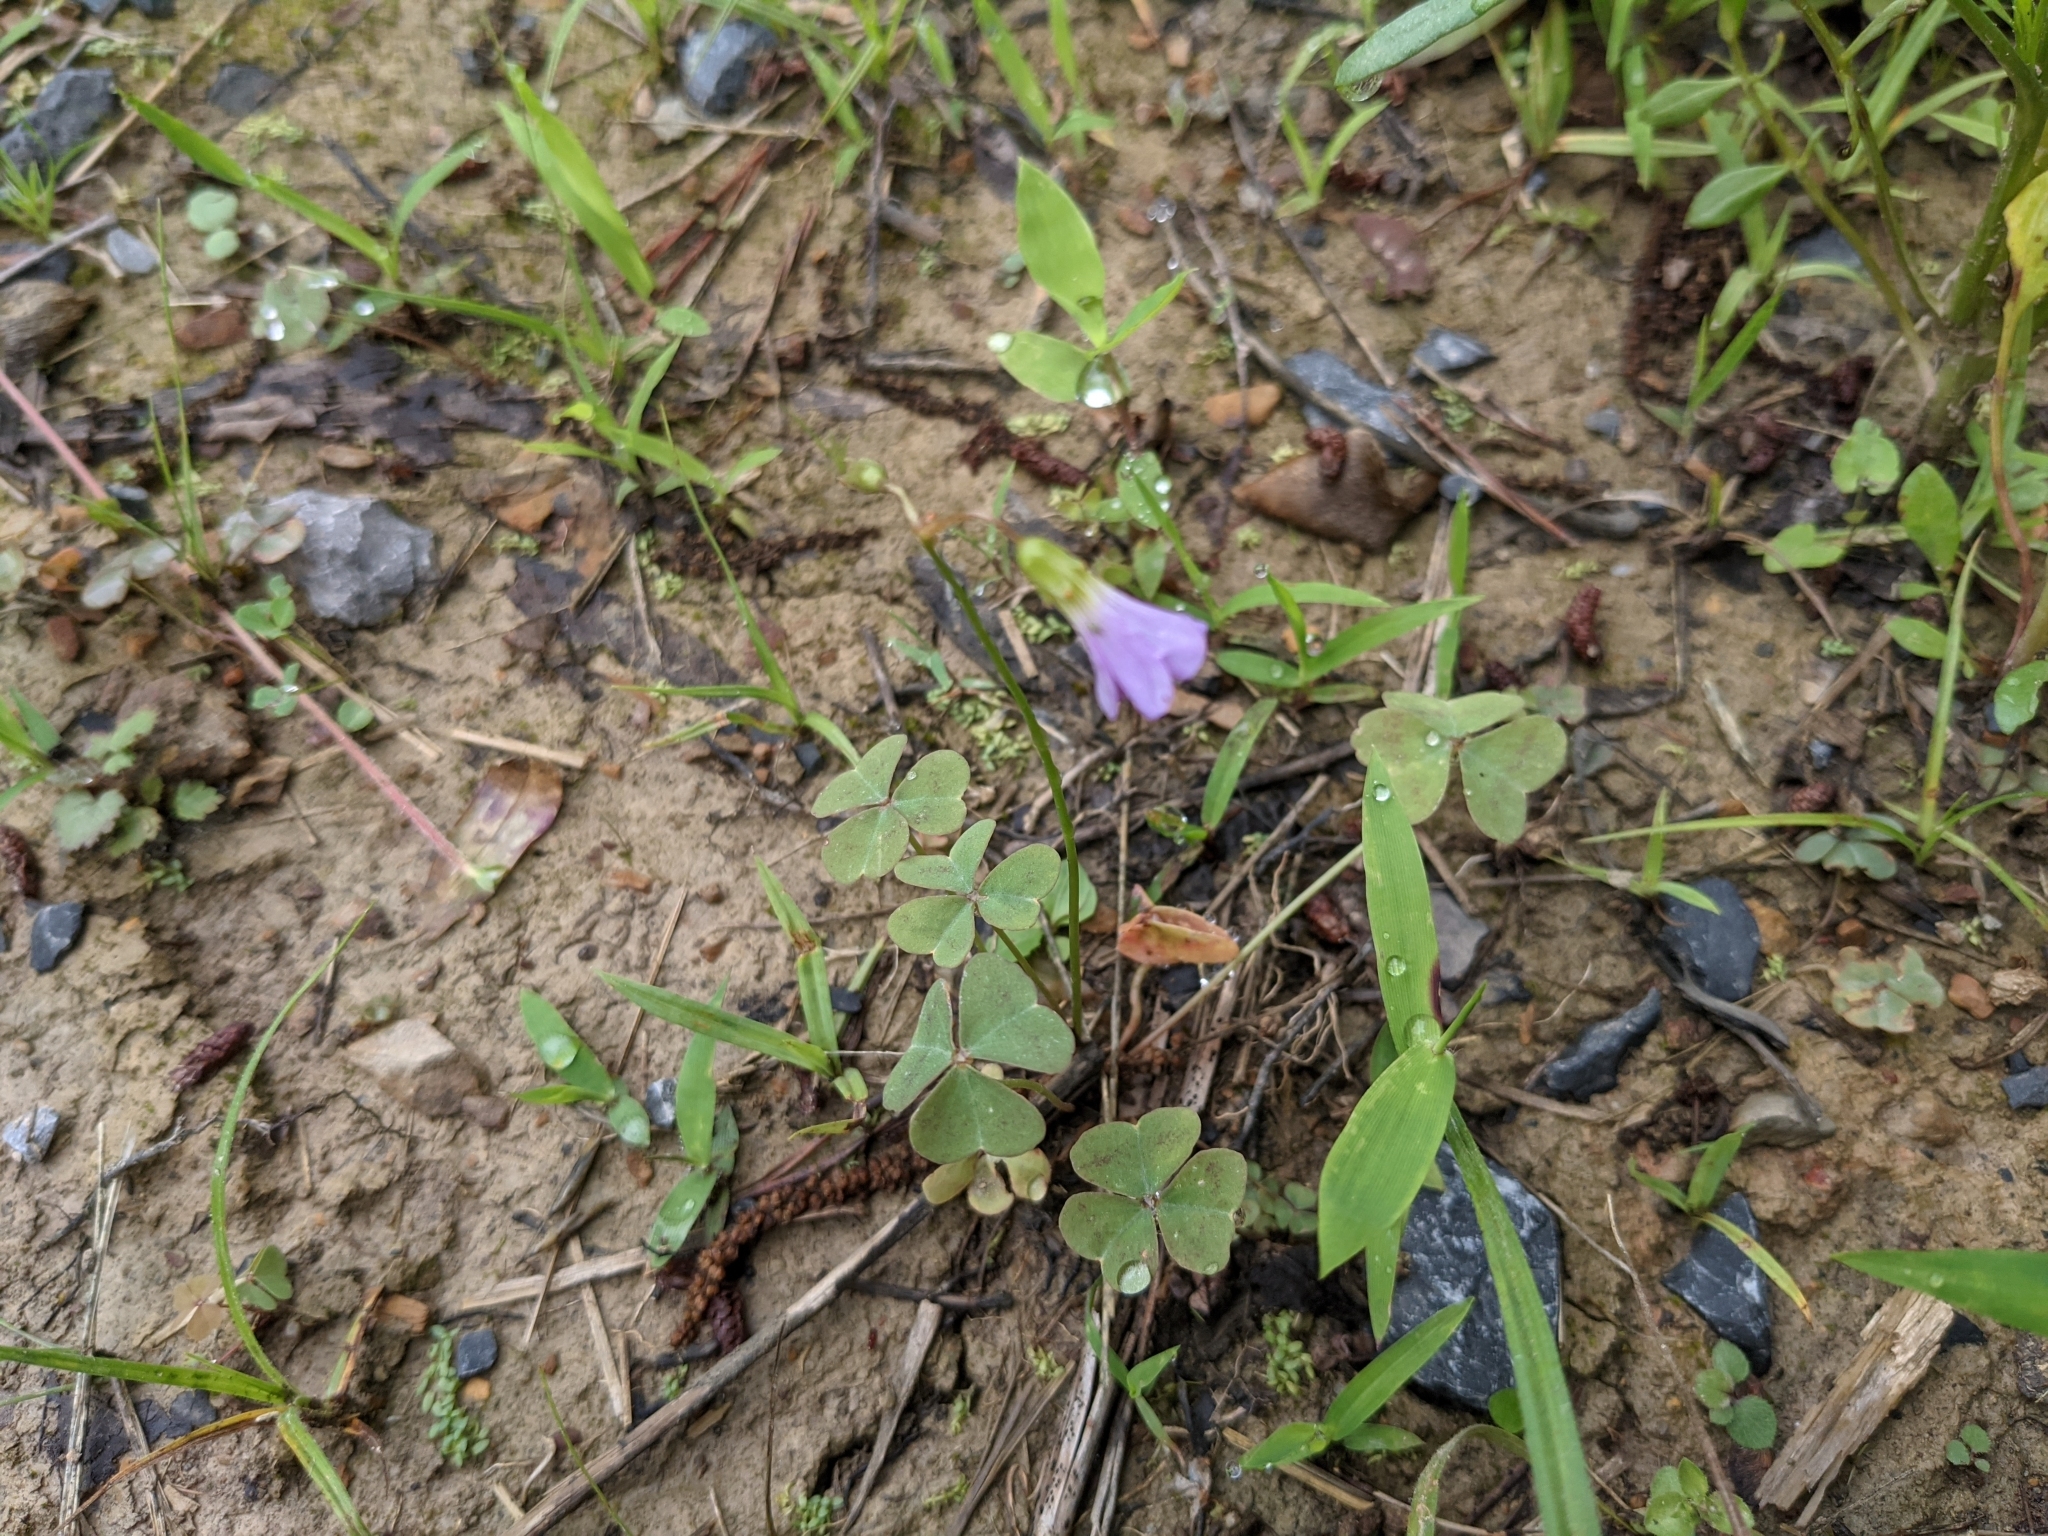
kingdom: Plantae
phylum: Tracheophyta
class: Magnoliopsida
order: Oxalidales
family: Oxalidaceae
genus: Oxalis
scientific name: Oxalis violacea
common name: Violet wood-sorrel
